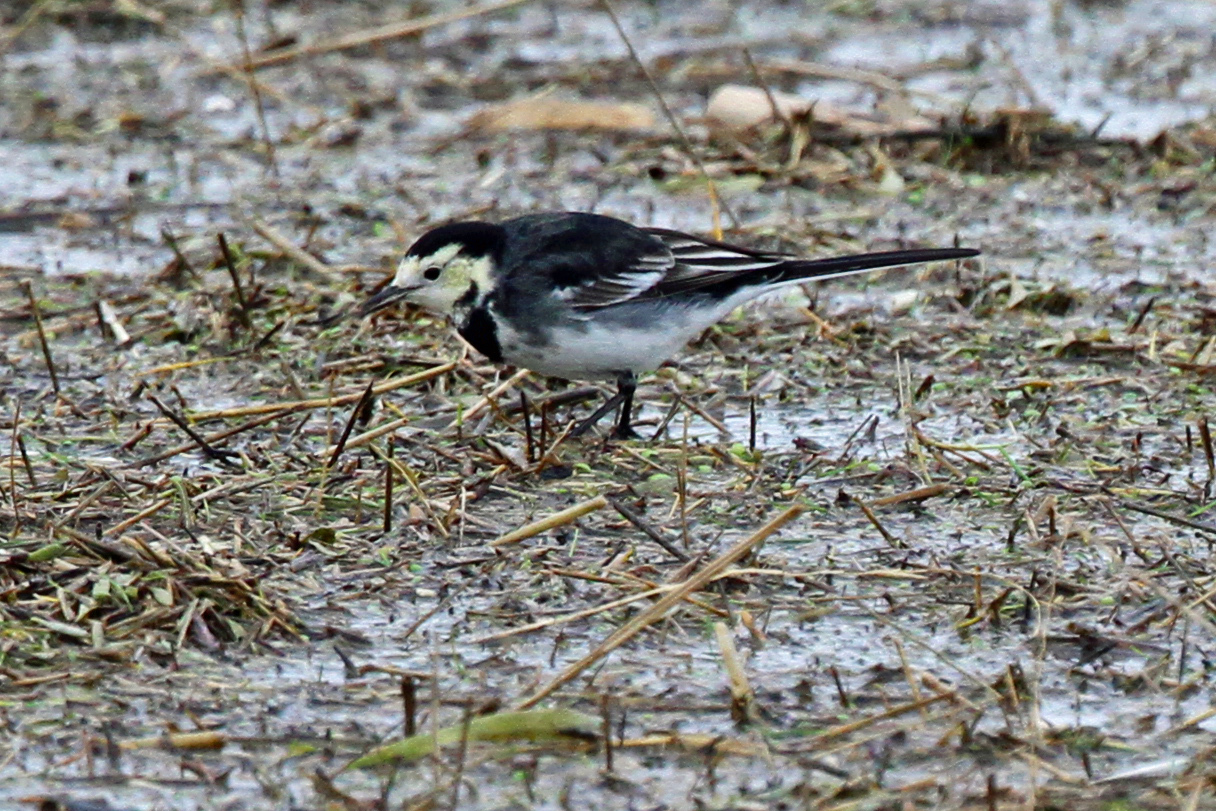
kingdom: Animalia
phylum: Chordata
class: Aves
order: Passeriformes
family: Motacillidae
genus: Motacilla
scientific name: Motacilla alba
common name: White wagtail
